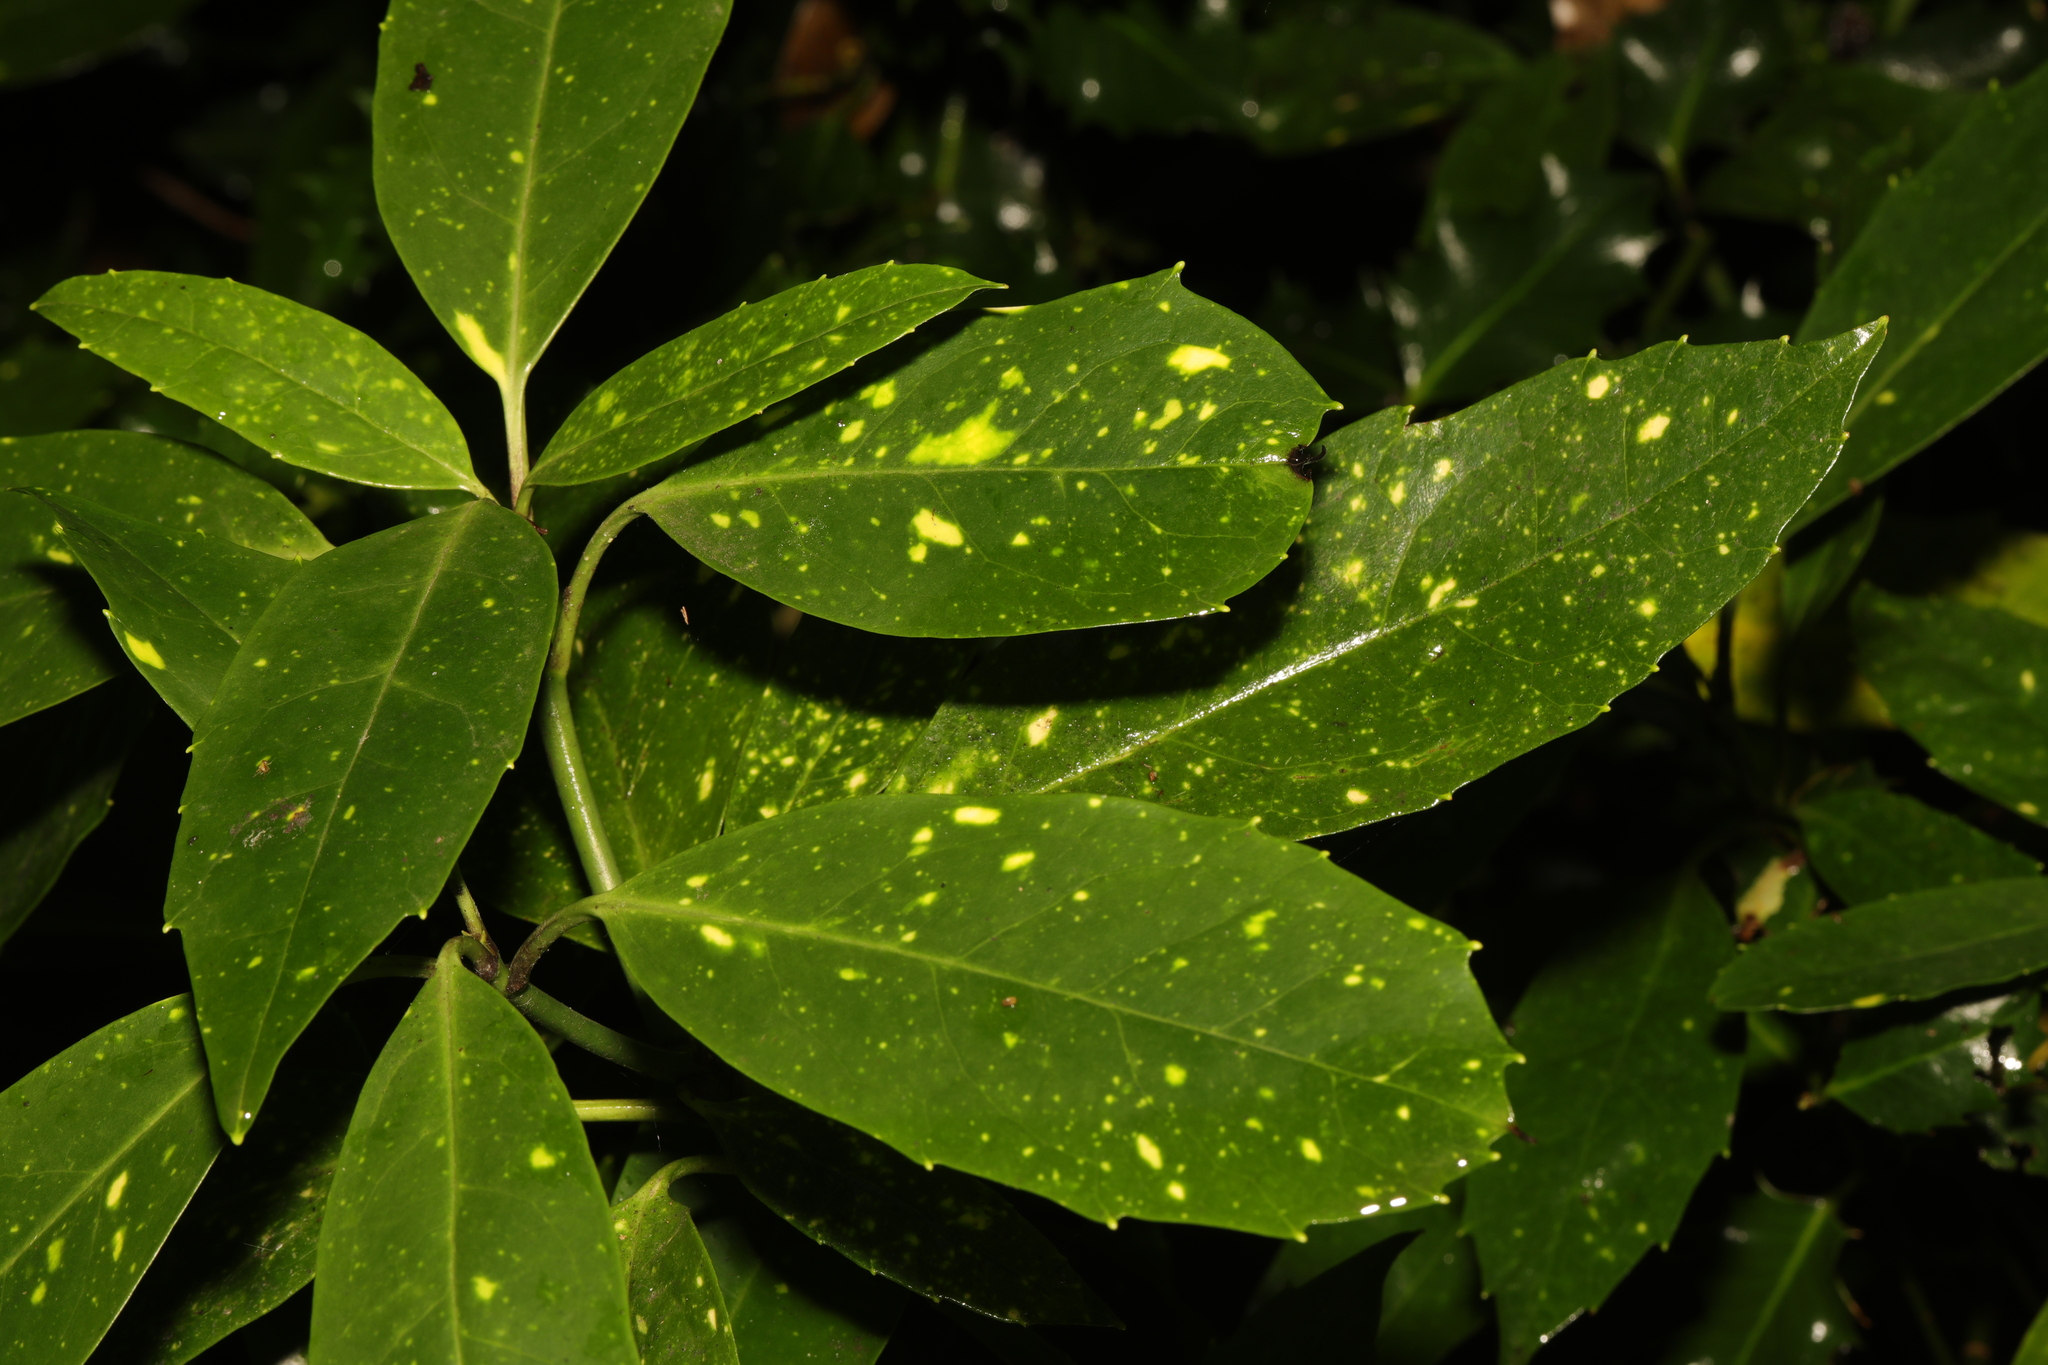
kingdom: Plantae
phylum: Tracheophyta
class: Magnoliopsida
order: Garryales
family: Garryaceae
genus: Aucuba
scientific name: Aucuba japonica
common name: Spotted-laurel
